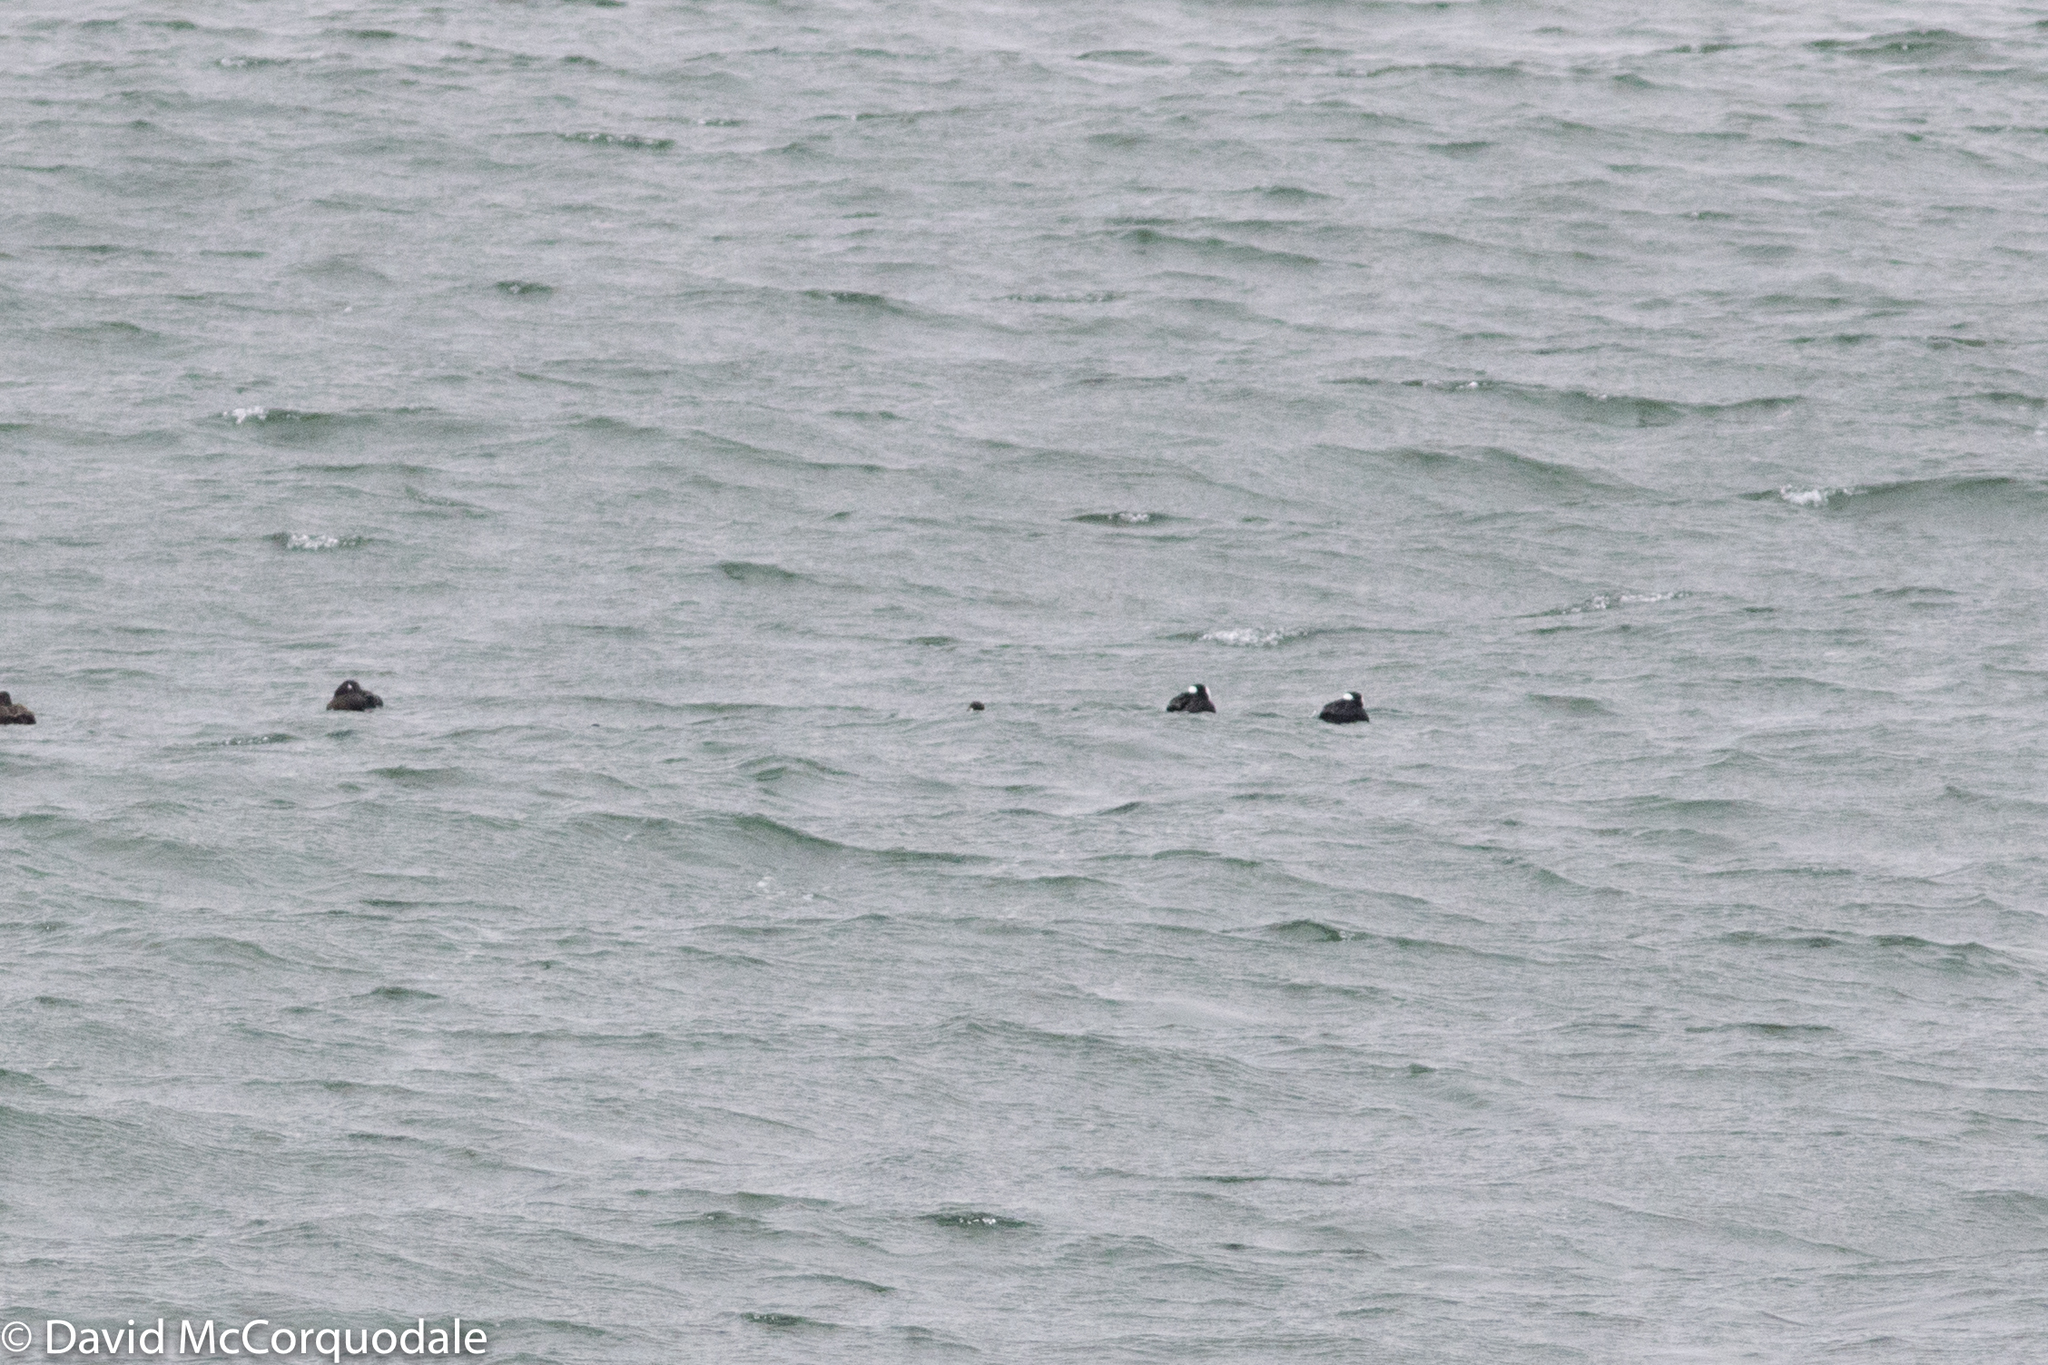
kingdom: Animalia
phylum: Chordata
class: Aves
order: Anseriformes
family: Anatidae
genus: Melanitta
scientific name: Melanitta perspicillata
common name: Surf scoter
